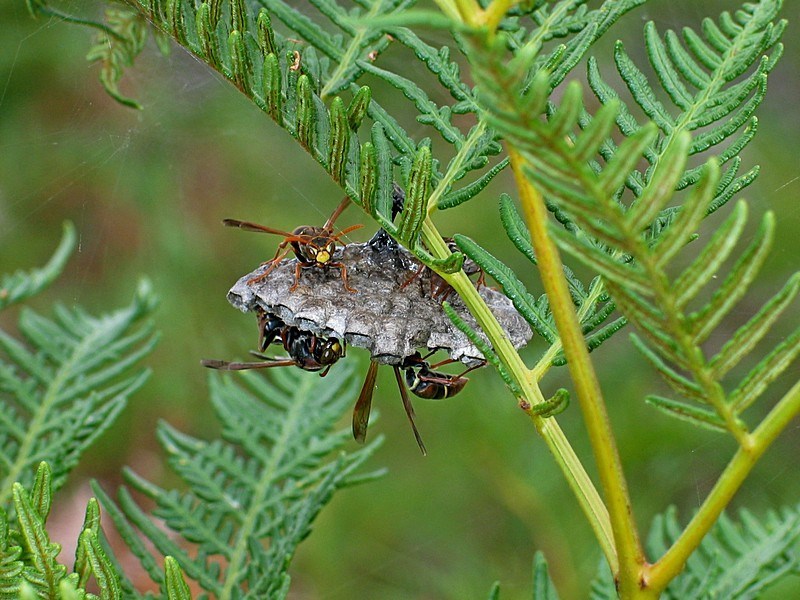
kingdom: Animalia
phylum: Arthropoda
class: Insecta
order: Hymenoptera
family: Eumenidae
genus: Polistes
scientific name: Polistes humilis
